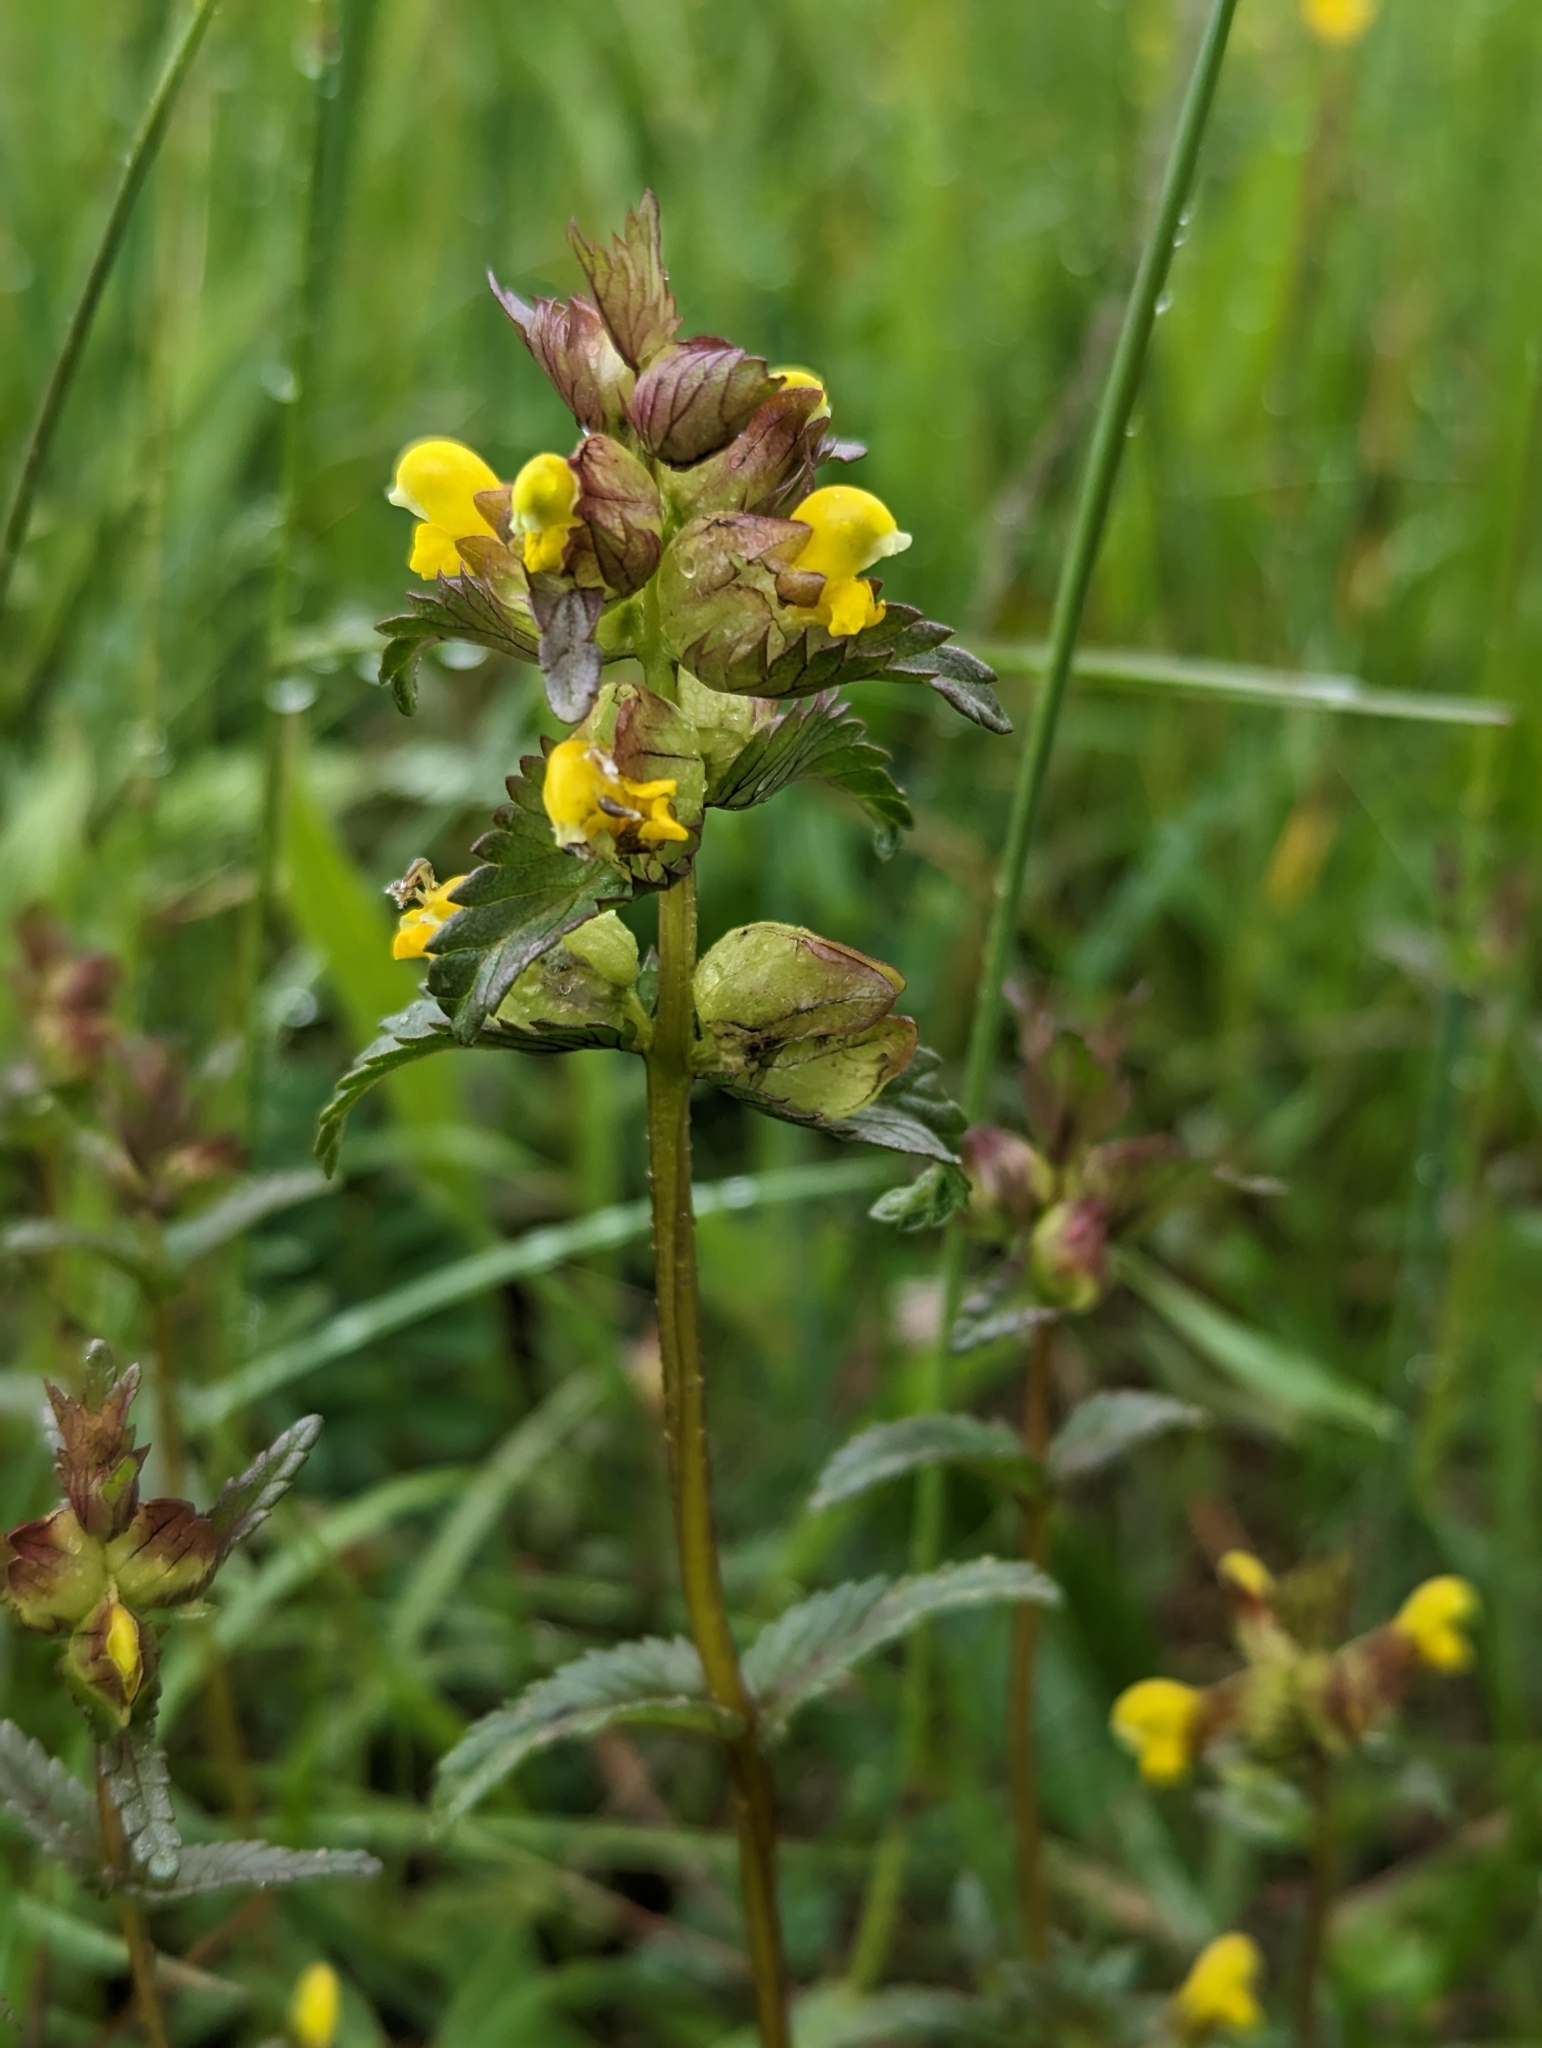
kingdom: Plantae
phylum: Tracheophyta
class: Magnoliopsida
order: Lamiales
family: Orobanchaceae
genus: Rhinanthus
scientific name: Rhinanthus minor
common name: Yellow-rattle
